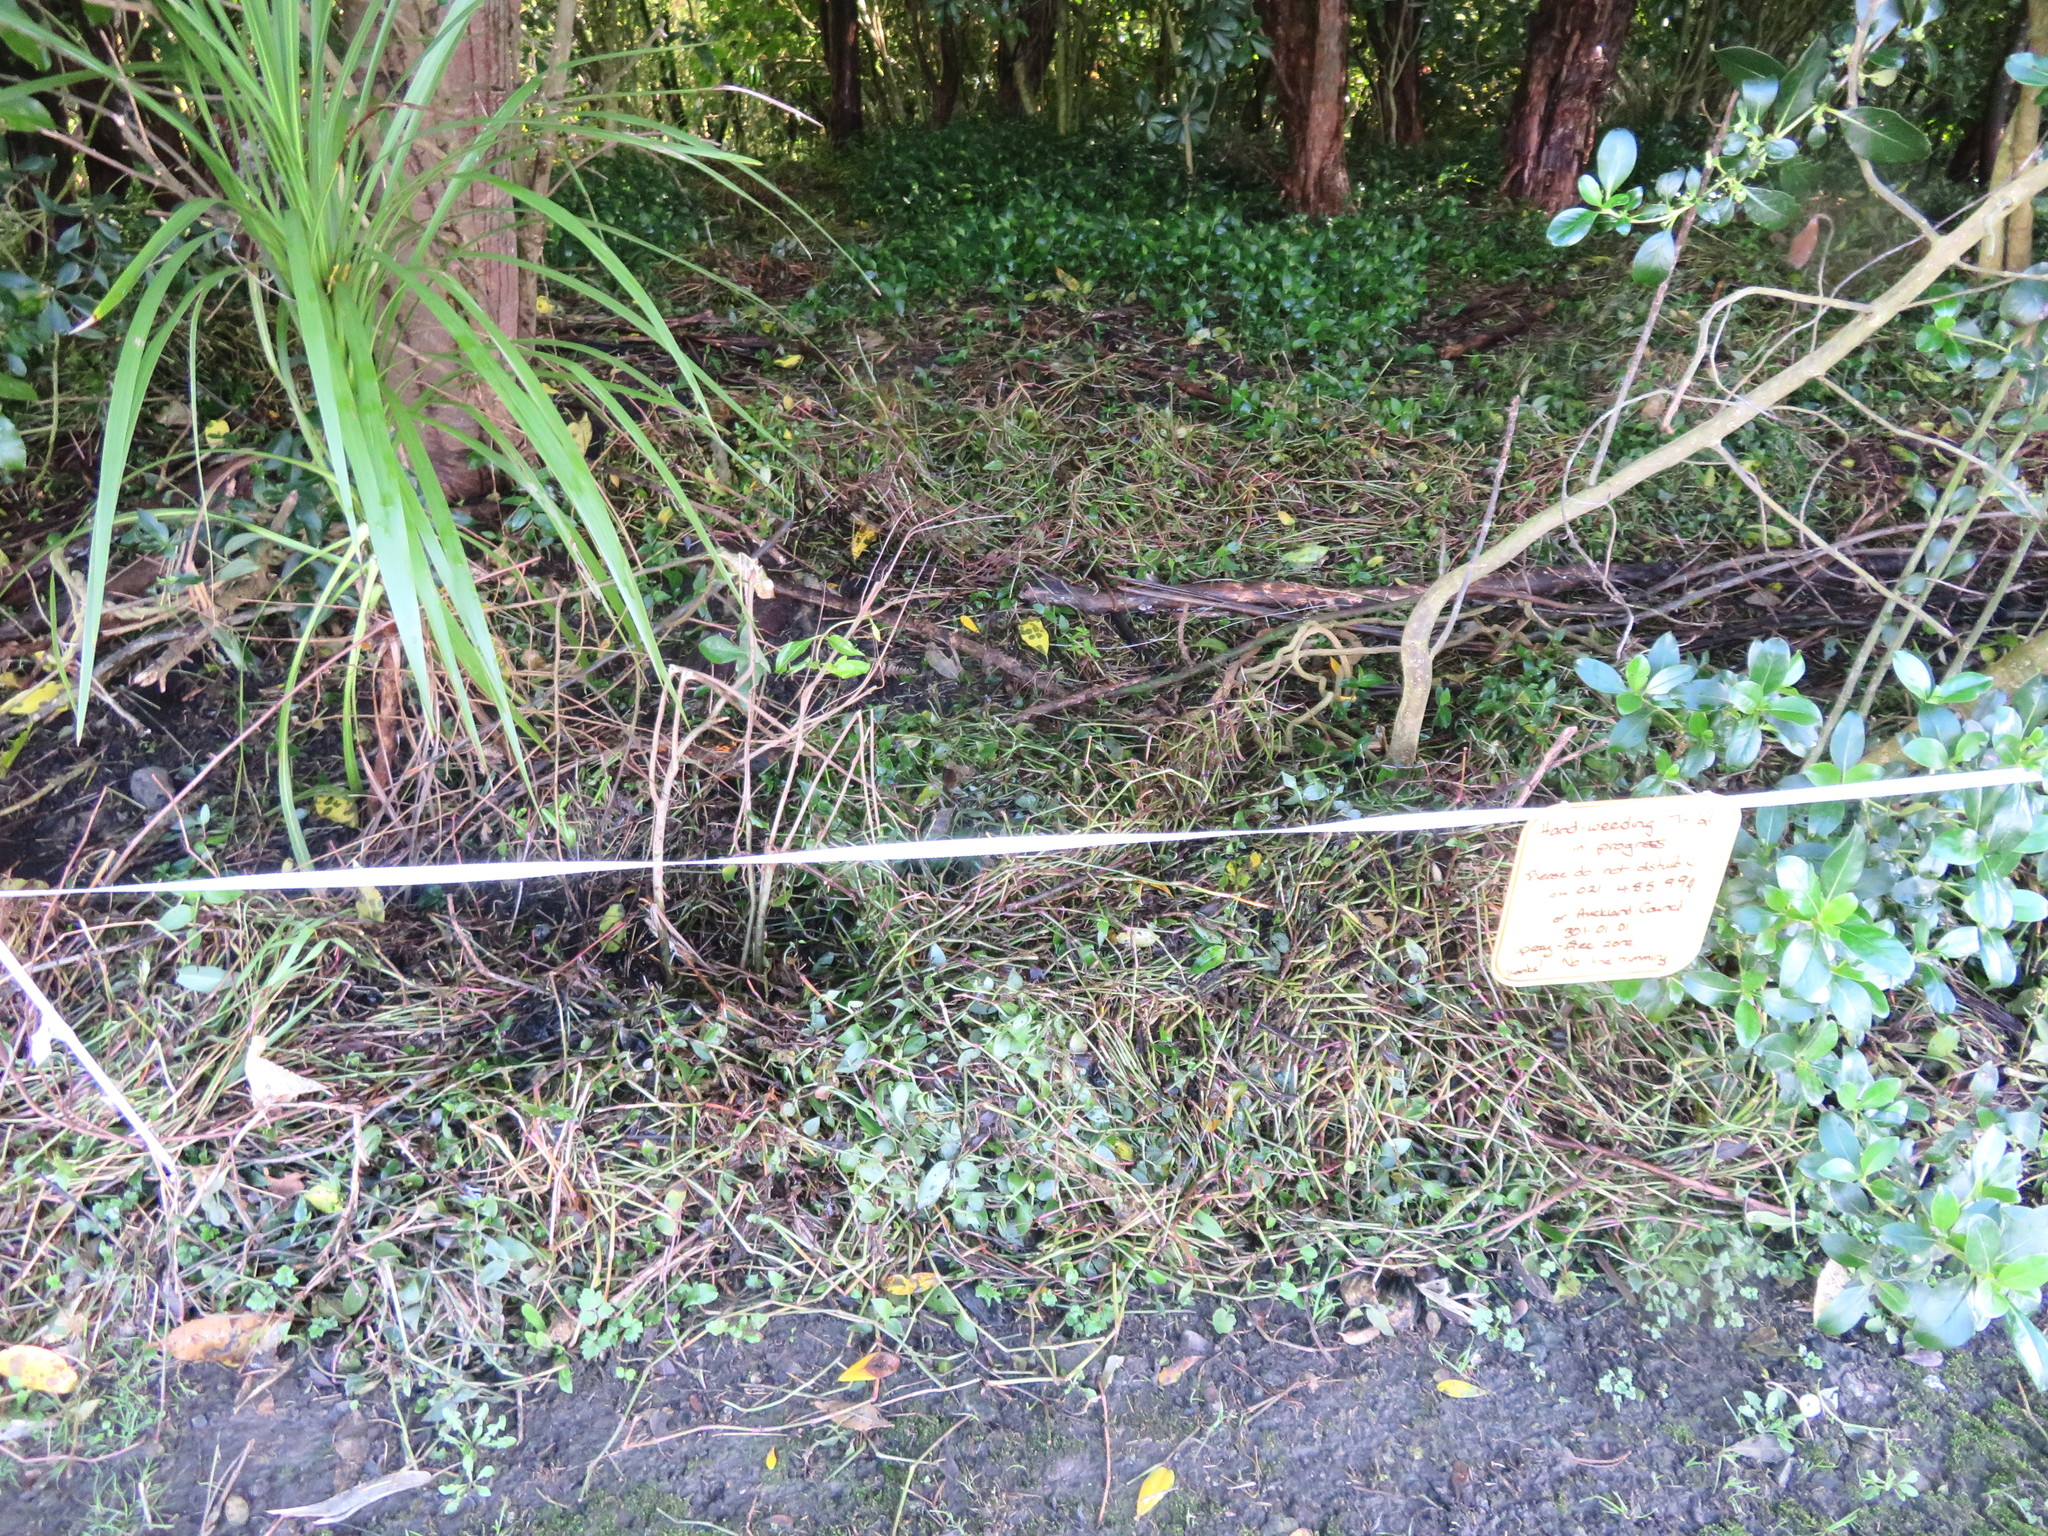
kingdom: Plantae
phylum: Tracheophyta
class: Liliopsida
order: Commelinales
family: Commelinaceae
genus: Tradescantia
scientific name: Tradescantia fluminensis
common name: Wandering-jew
